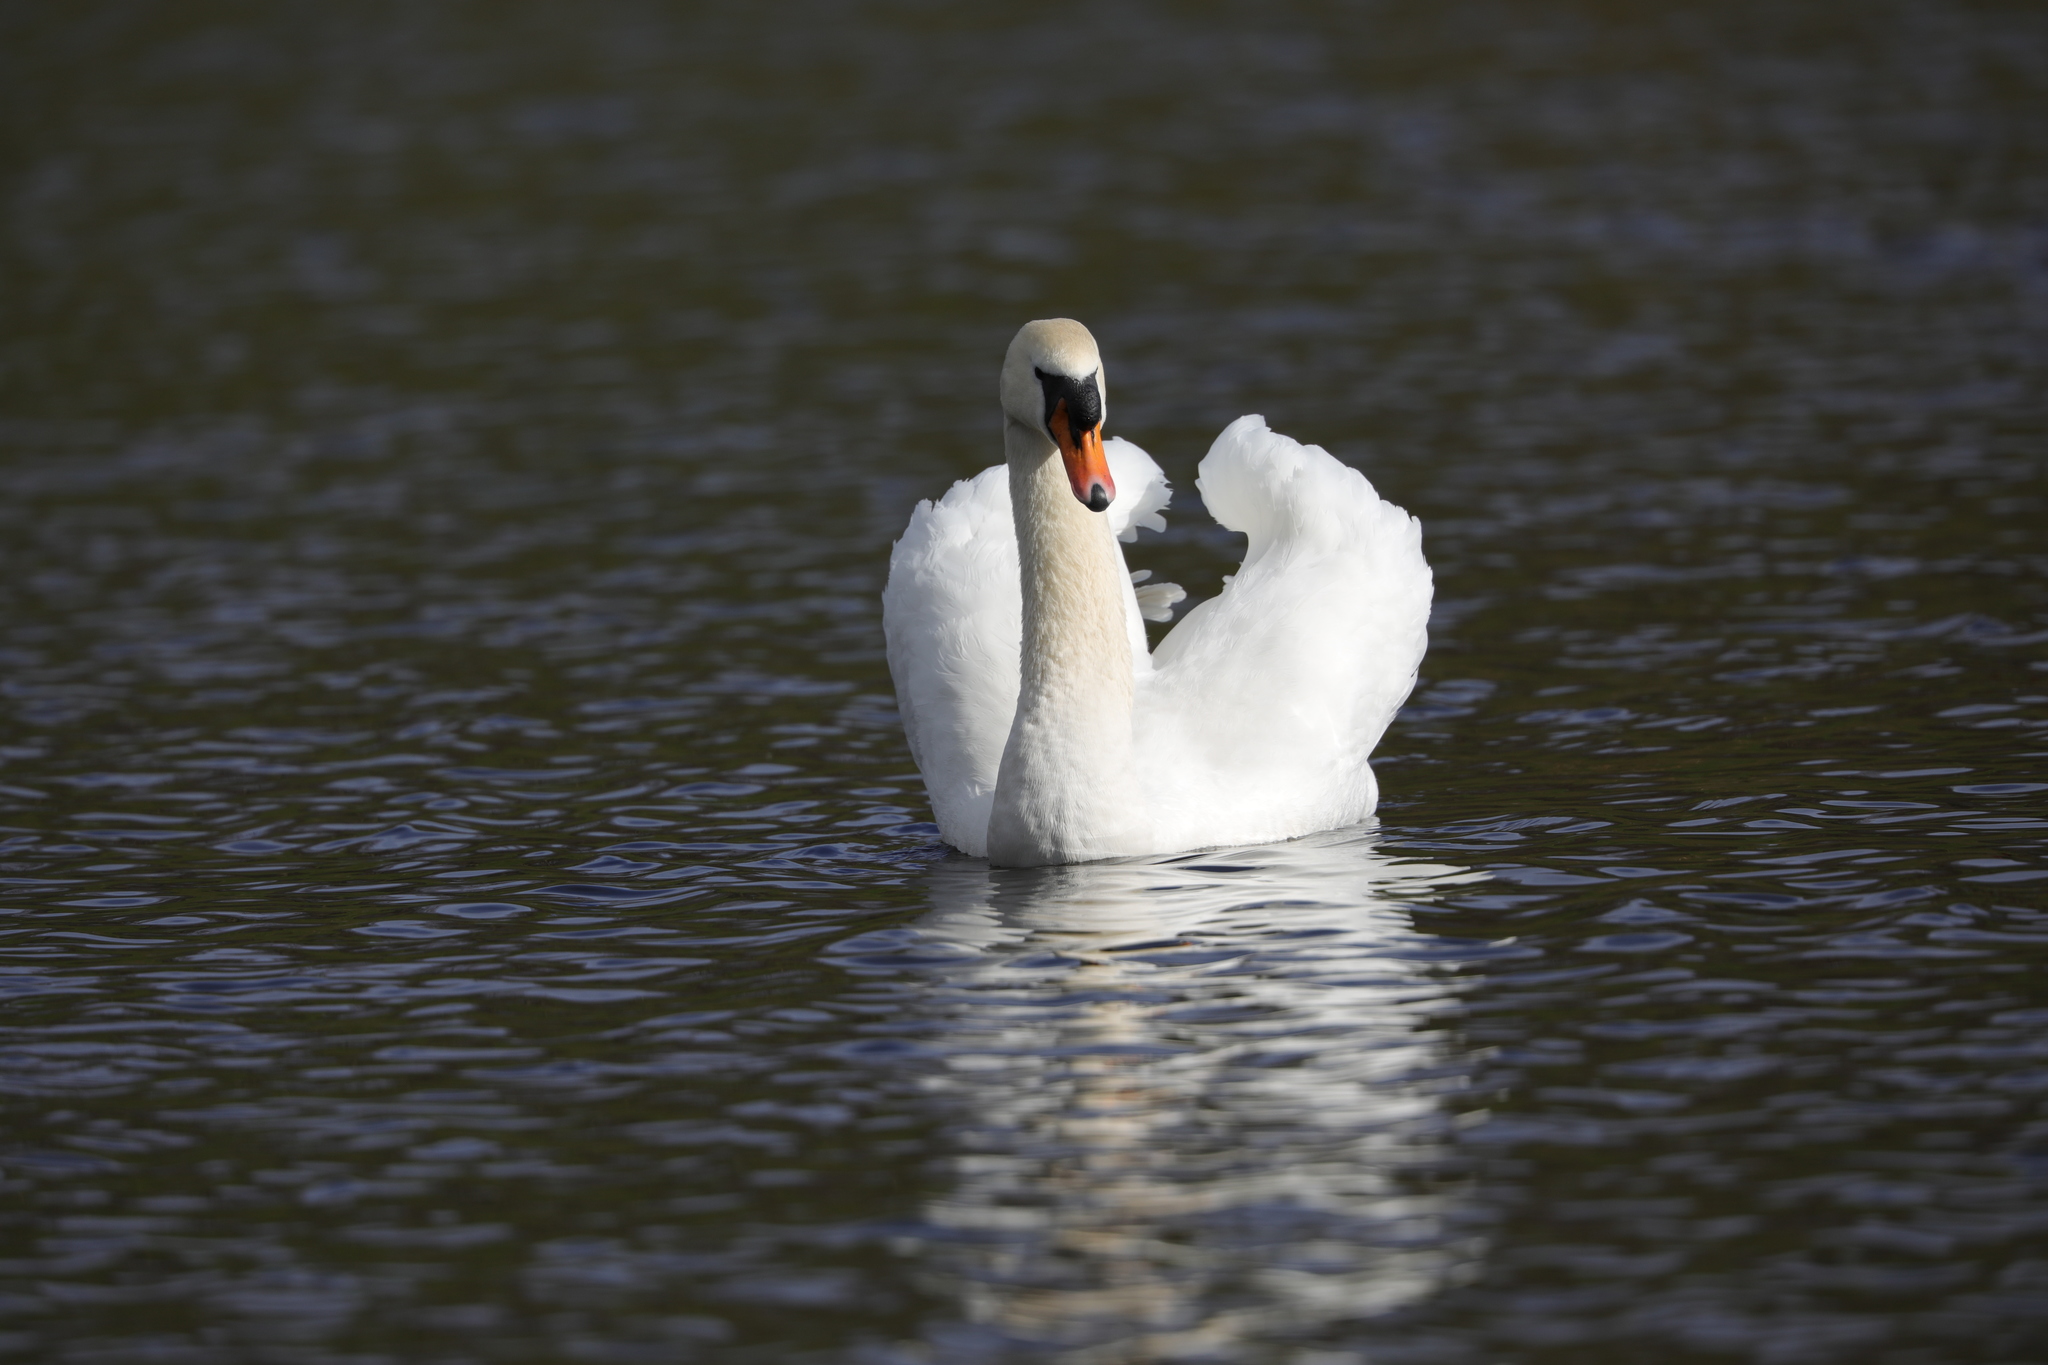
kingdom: Animalia
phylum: Chordata
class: Aves
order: Anseriformes
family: Anatidae
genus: Cygnus
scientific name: Cygnus olor
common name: Mute swan
